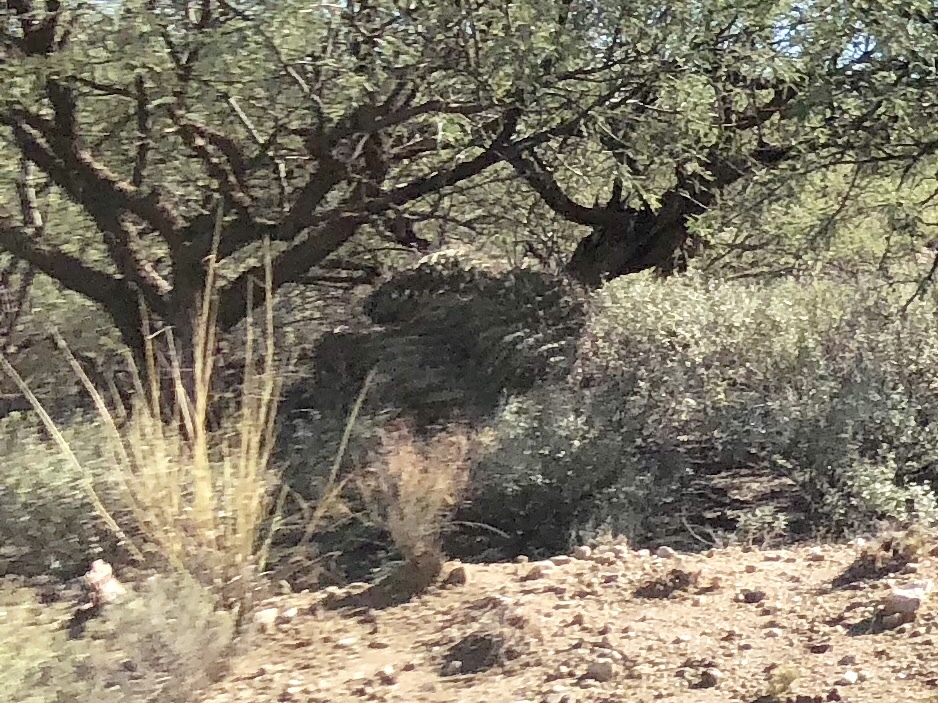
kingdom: Plantae
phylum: Tracheophyta
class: Magnoliopsida
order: Caryophyllales
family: Cactaceae
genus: Ferocactus
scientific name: Ferocactus wislizeni
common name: Candy barrel cactus
